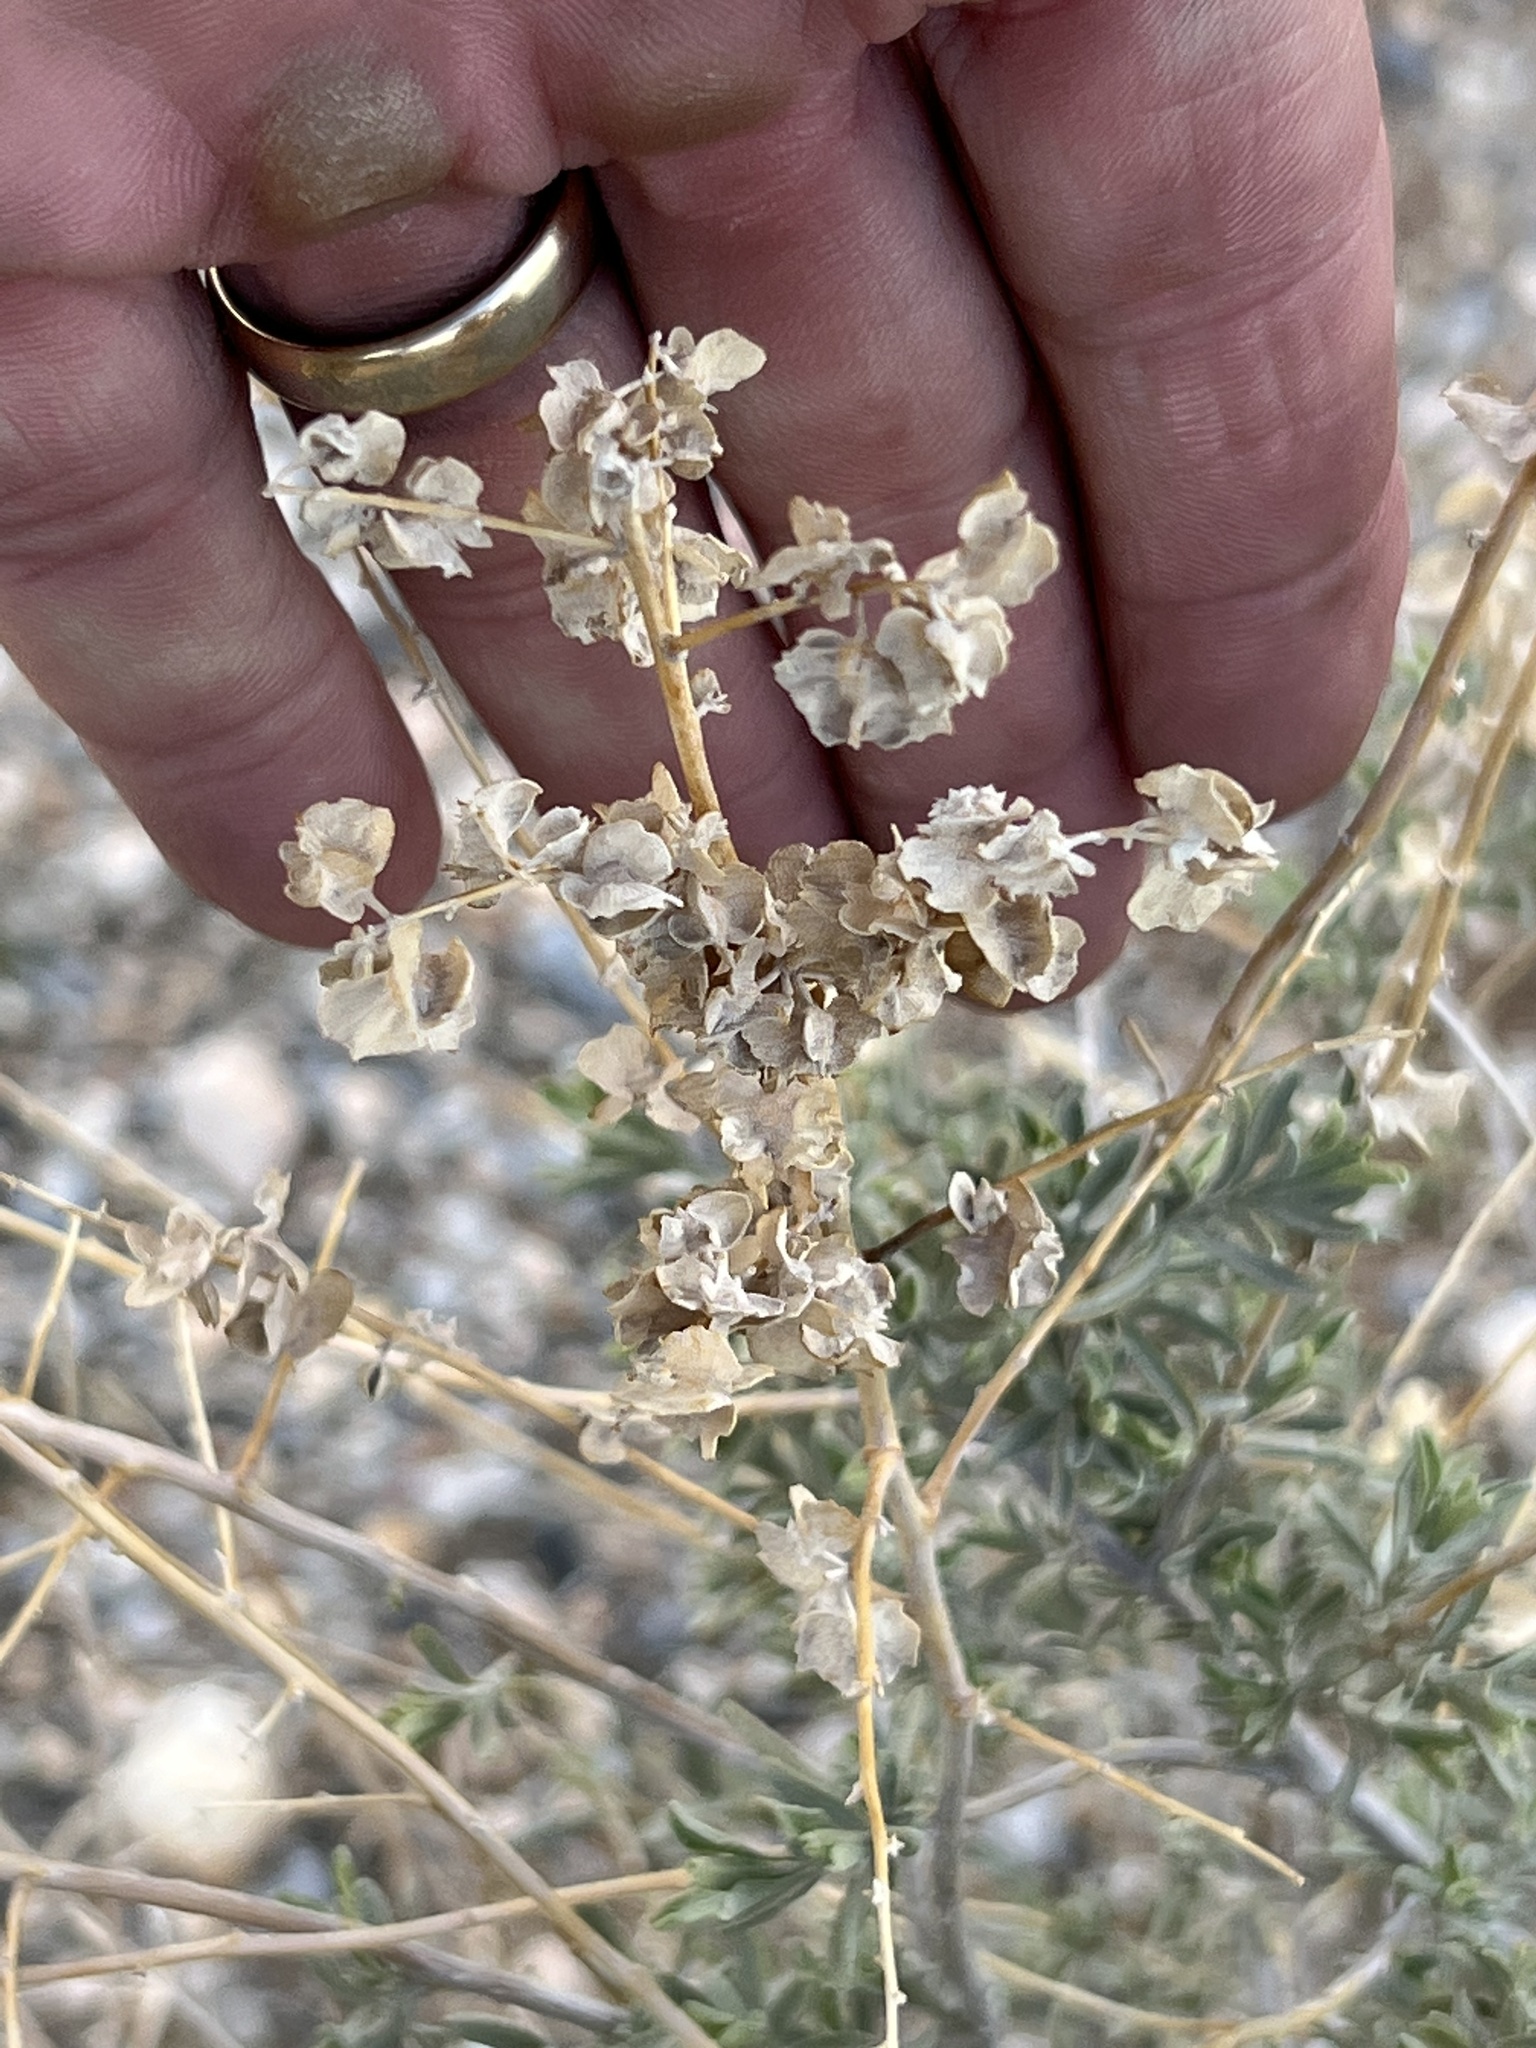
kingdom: Plantae
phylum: Tracheophyta
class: Magnoliopsida
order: Caryophyllales
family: Amaranthaceae
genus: Atriplex
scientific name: Atriplex canescens
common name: Four-wing saltbush
